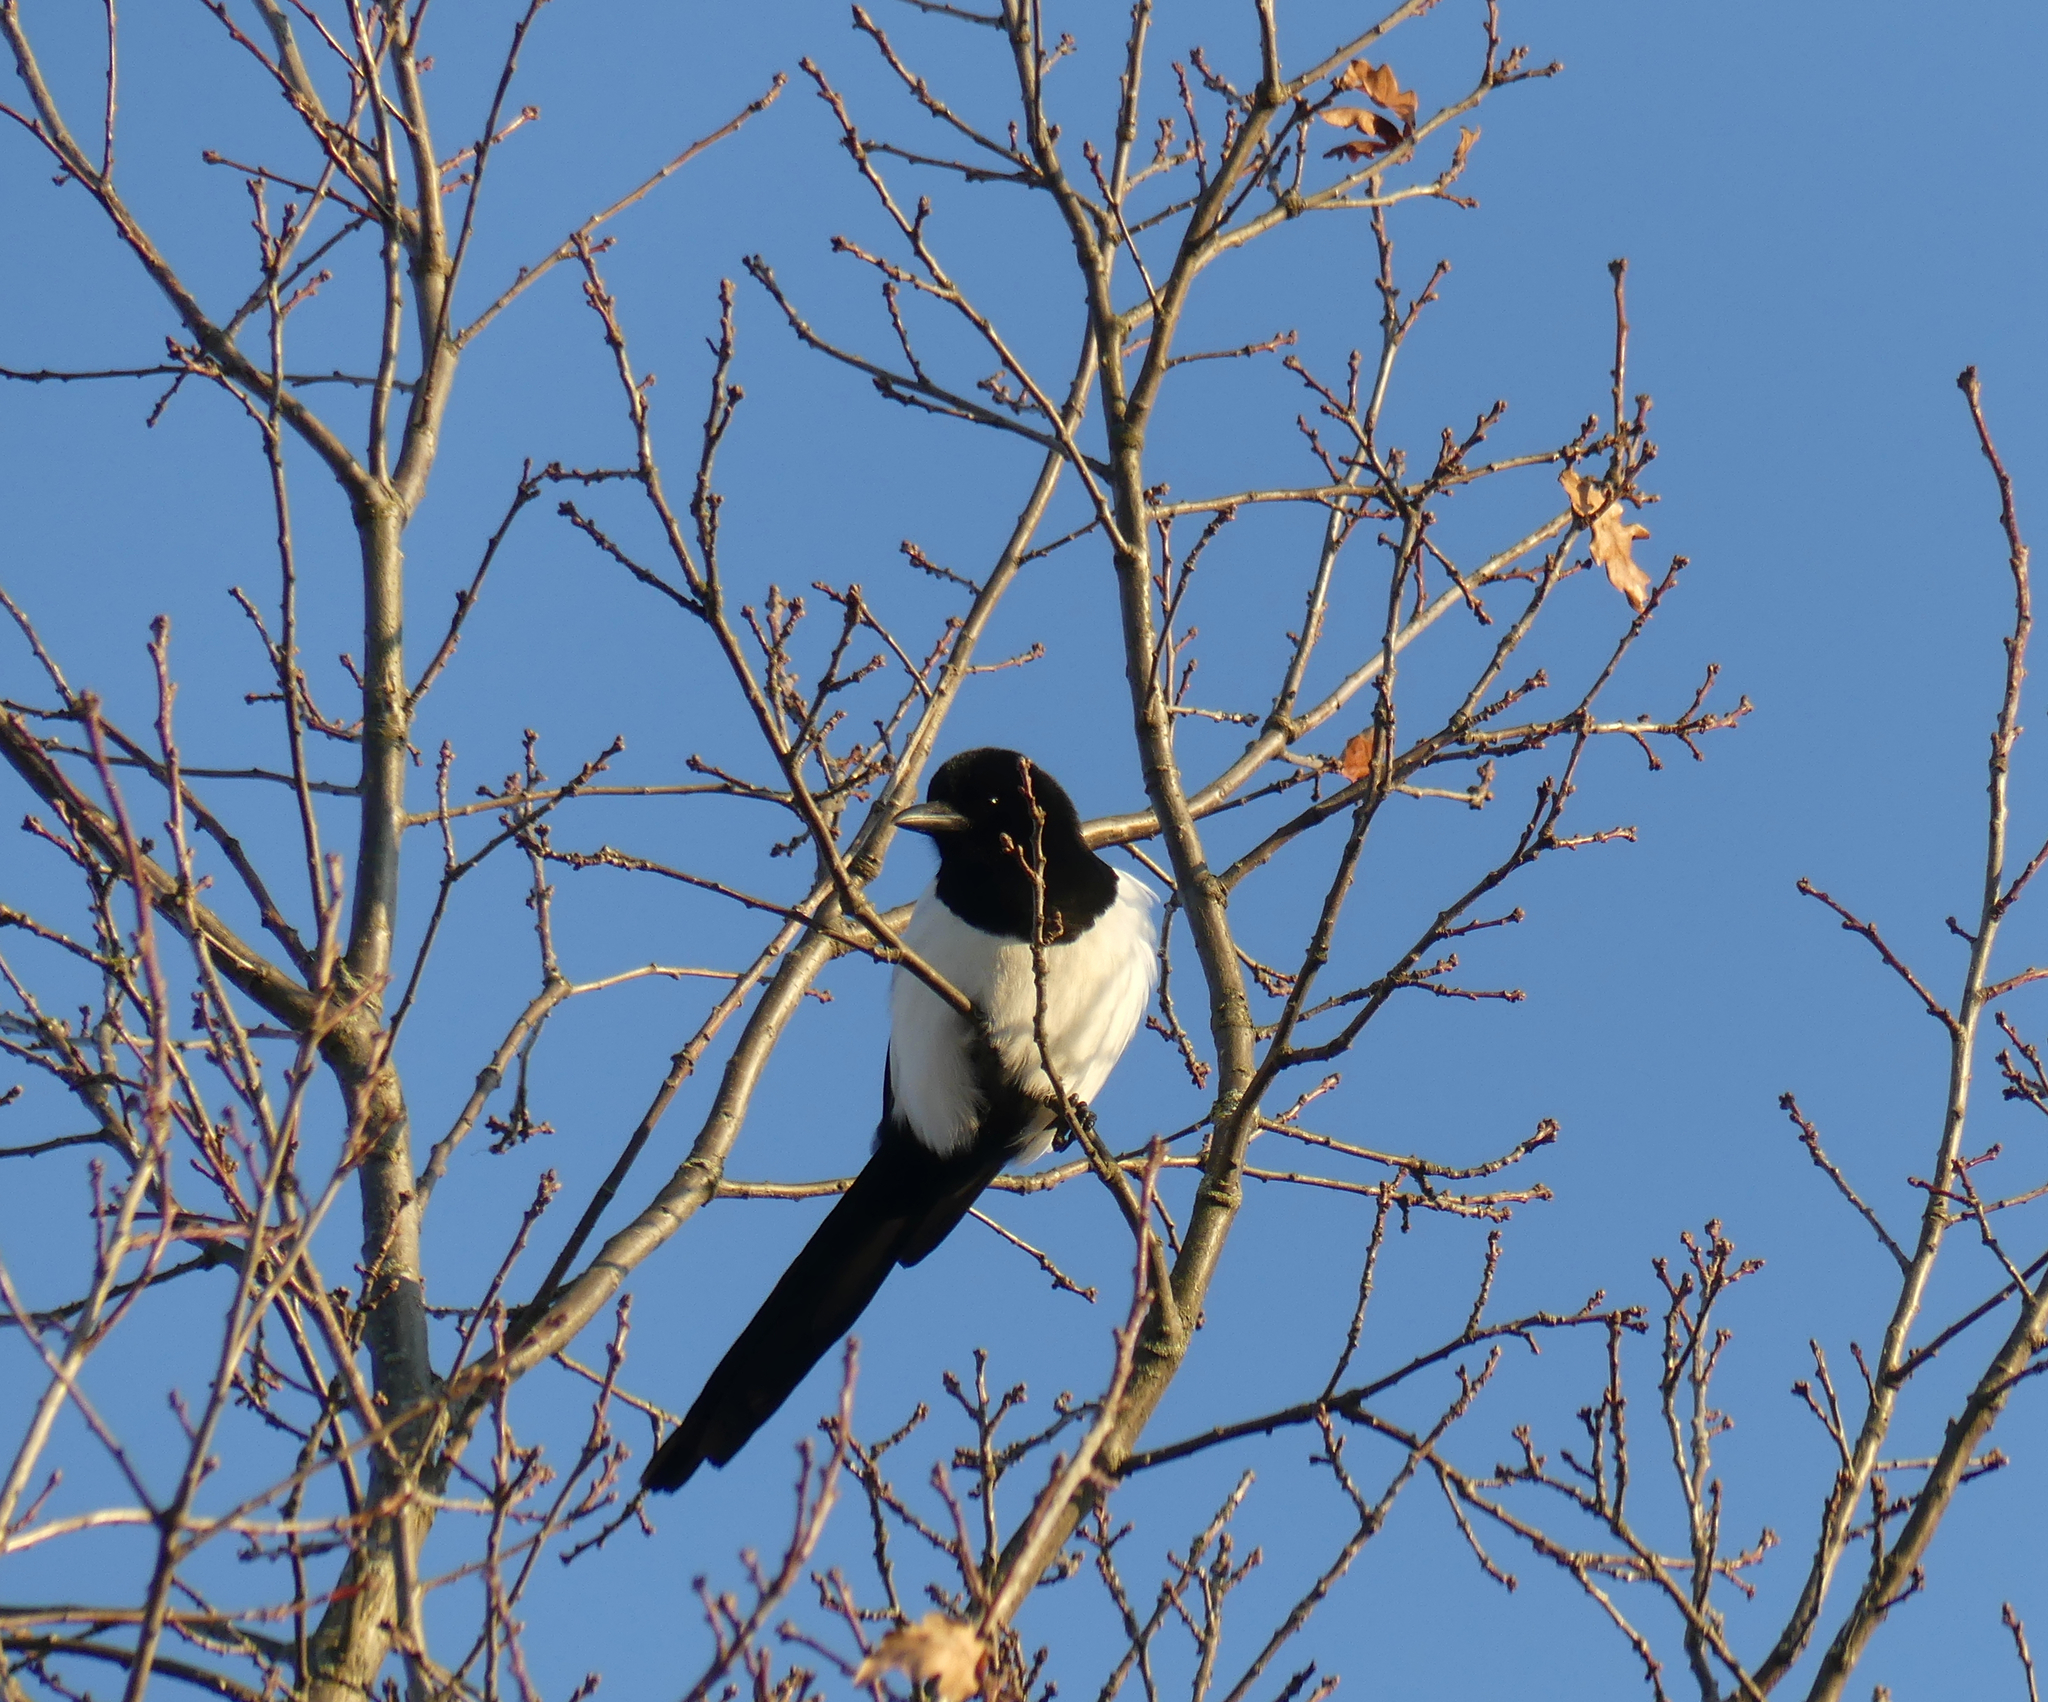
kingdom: Animalia
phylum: Chordata
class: Aves
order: Passeriformes
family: Corvidae
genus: Pica
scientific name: Pica pica
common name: Eurasian magpie
